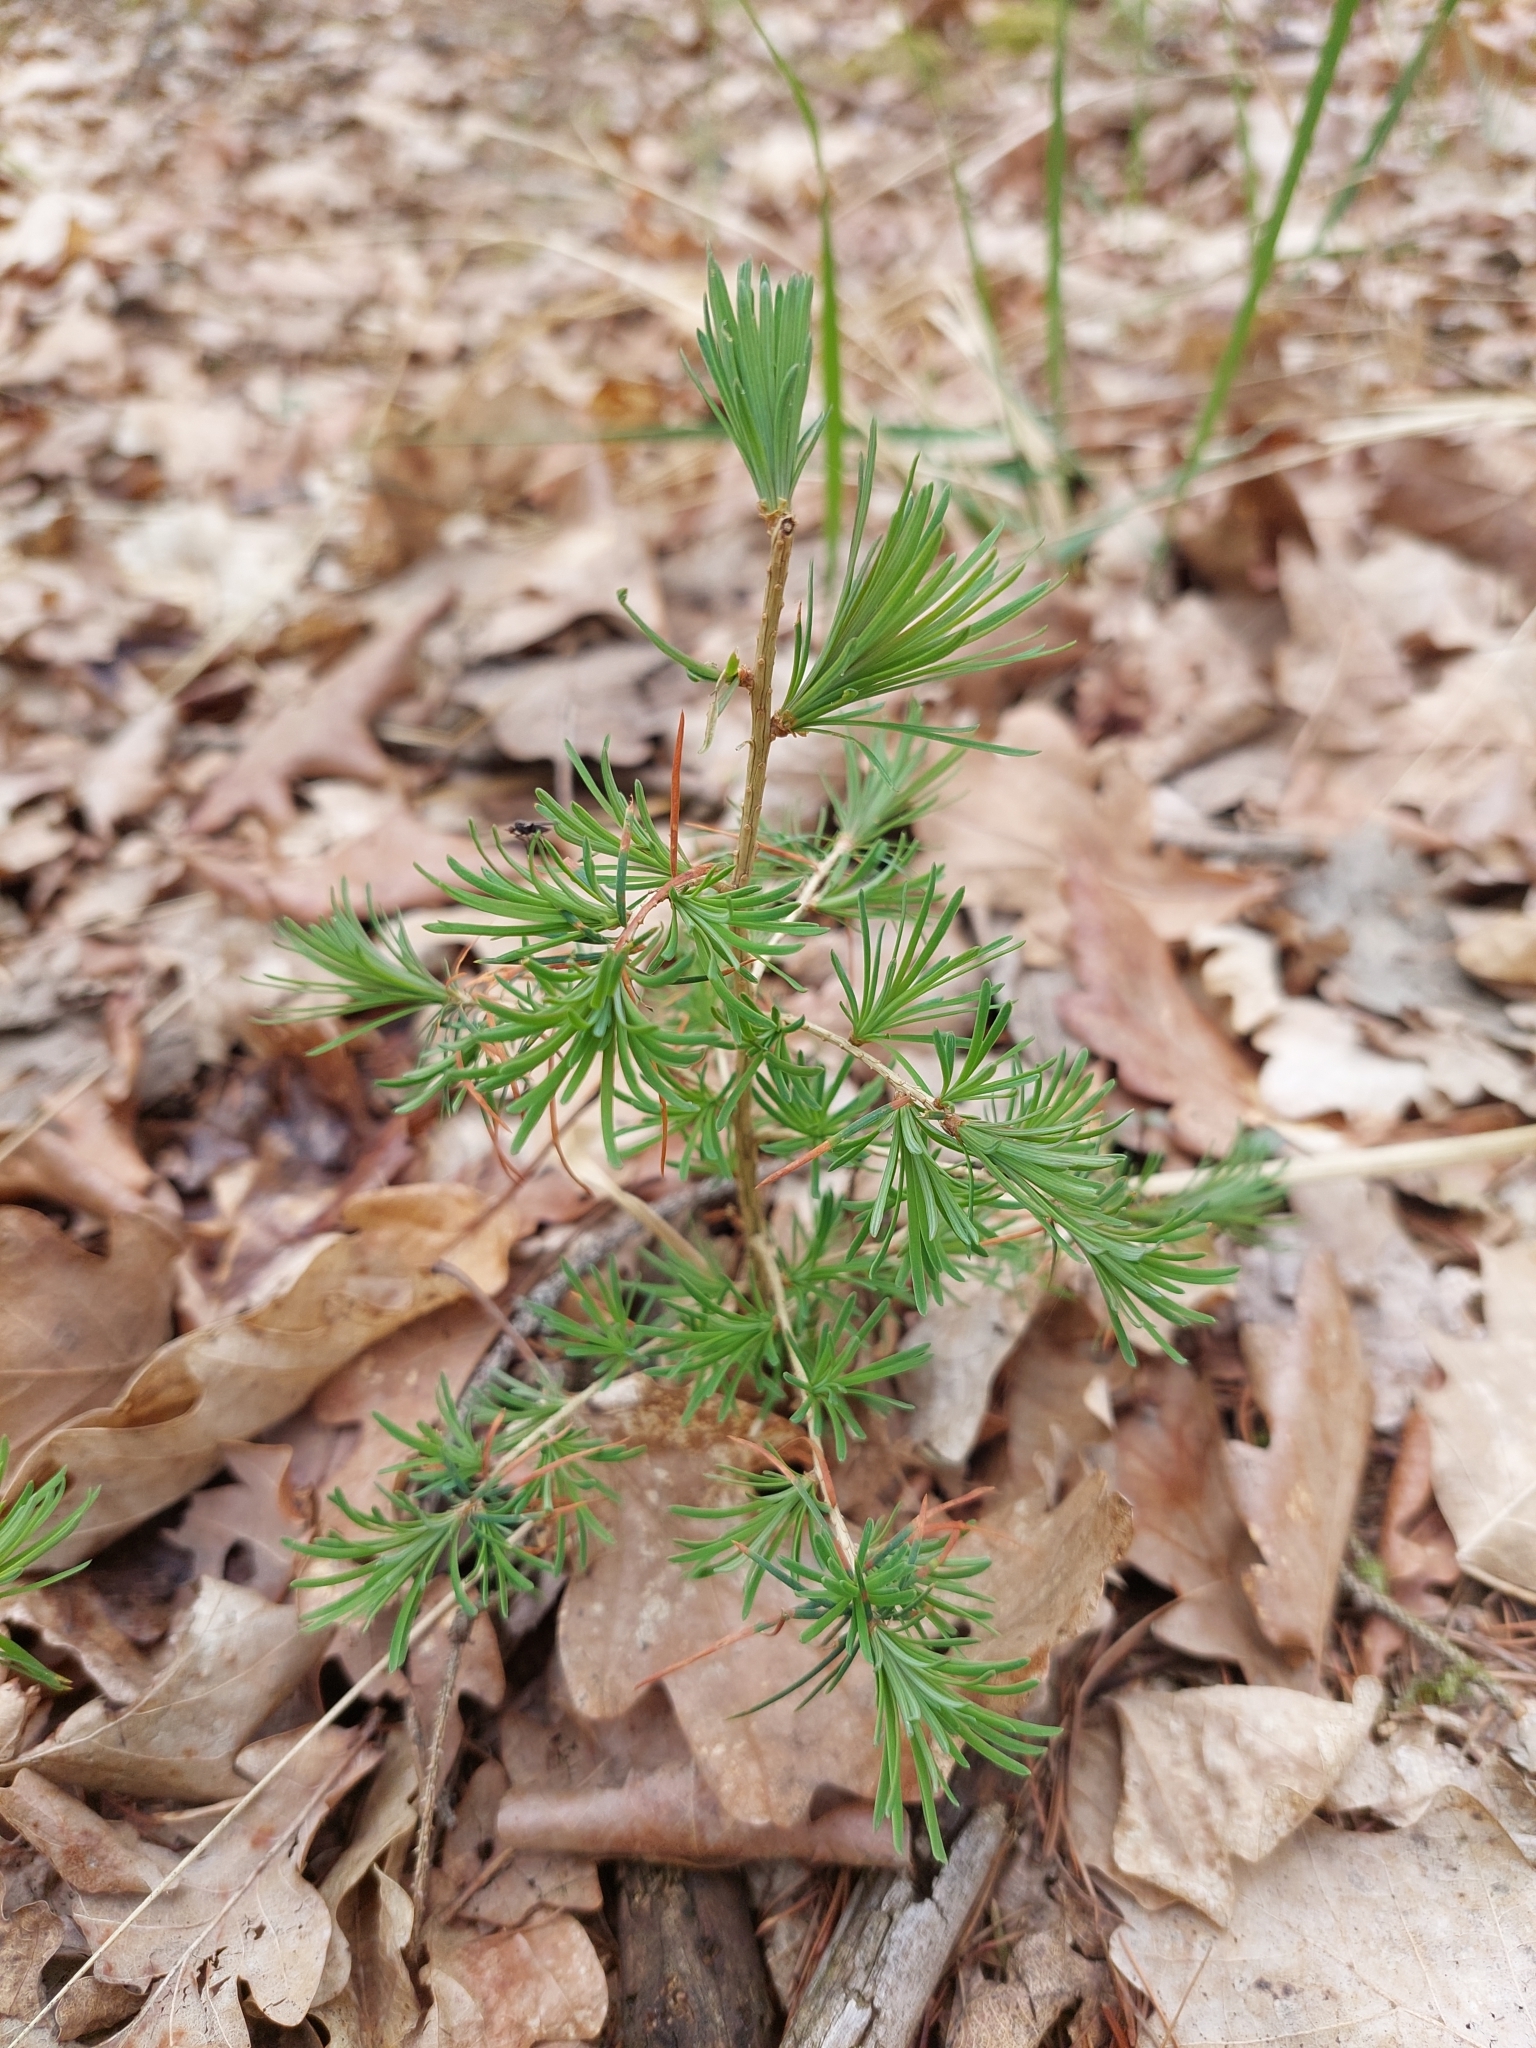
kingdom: Plantae
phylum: Tracheophyta
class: Pinopsida
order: Pinales
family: Pinaceae
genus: Larix
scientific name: Larix decidua
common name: European larch
